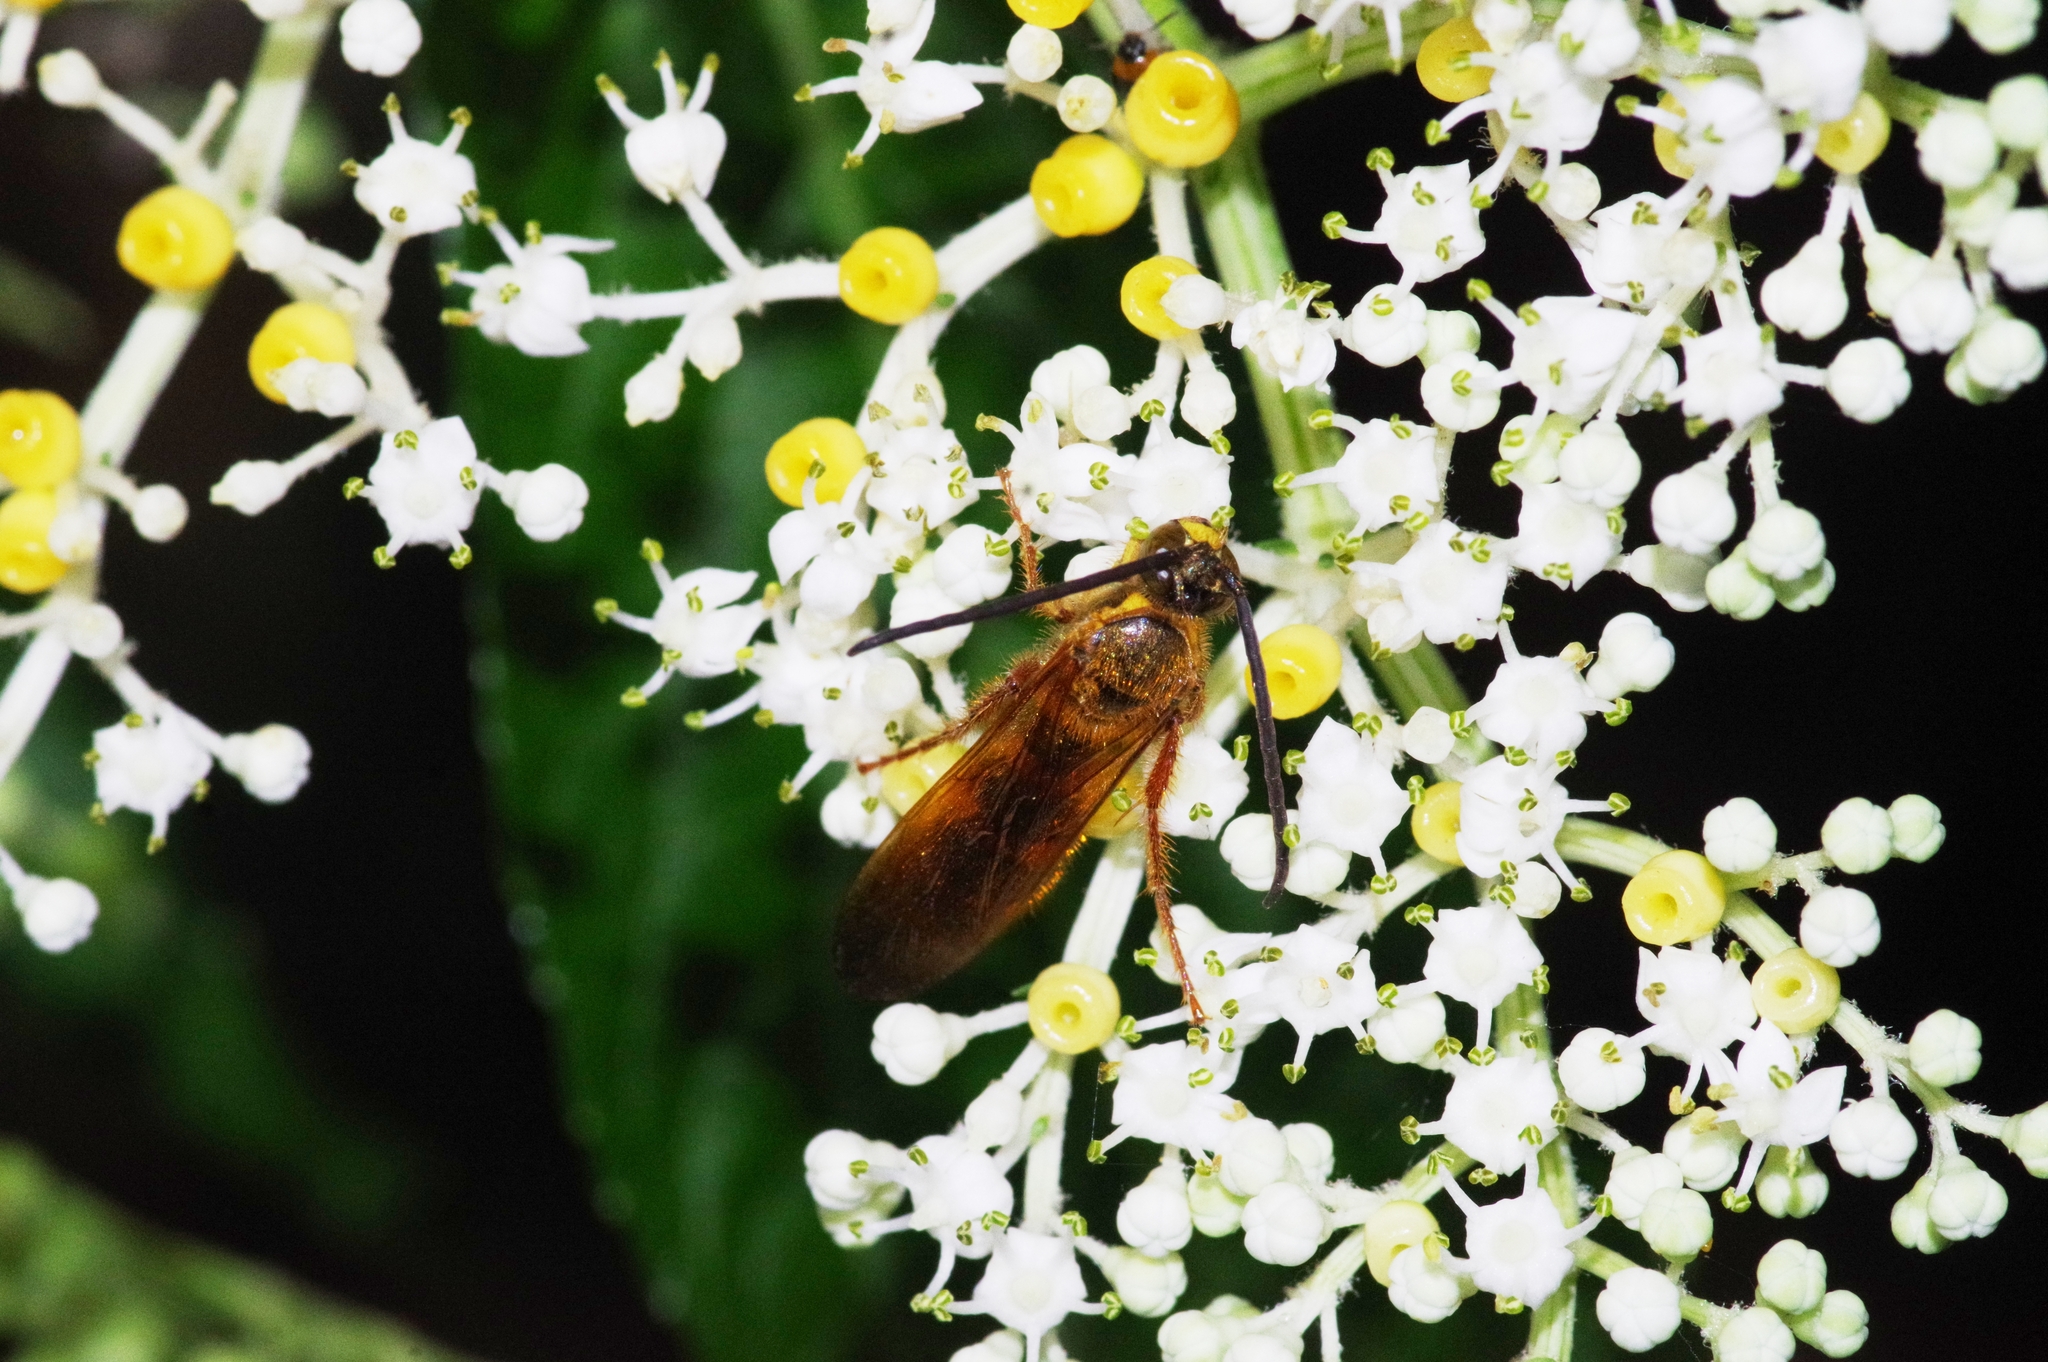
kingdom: Animalia
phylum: Arthropoda
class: Insecta
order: Hymenoptera
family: Scoliidae
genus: Megacampsomeris
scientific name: Megacampsomeris
